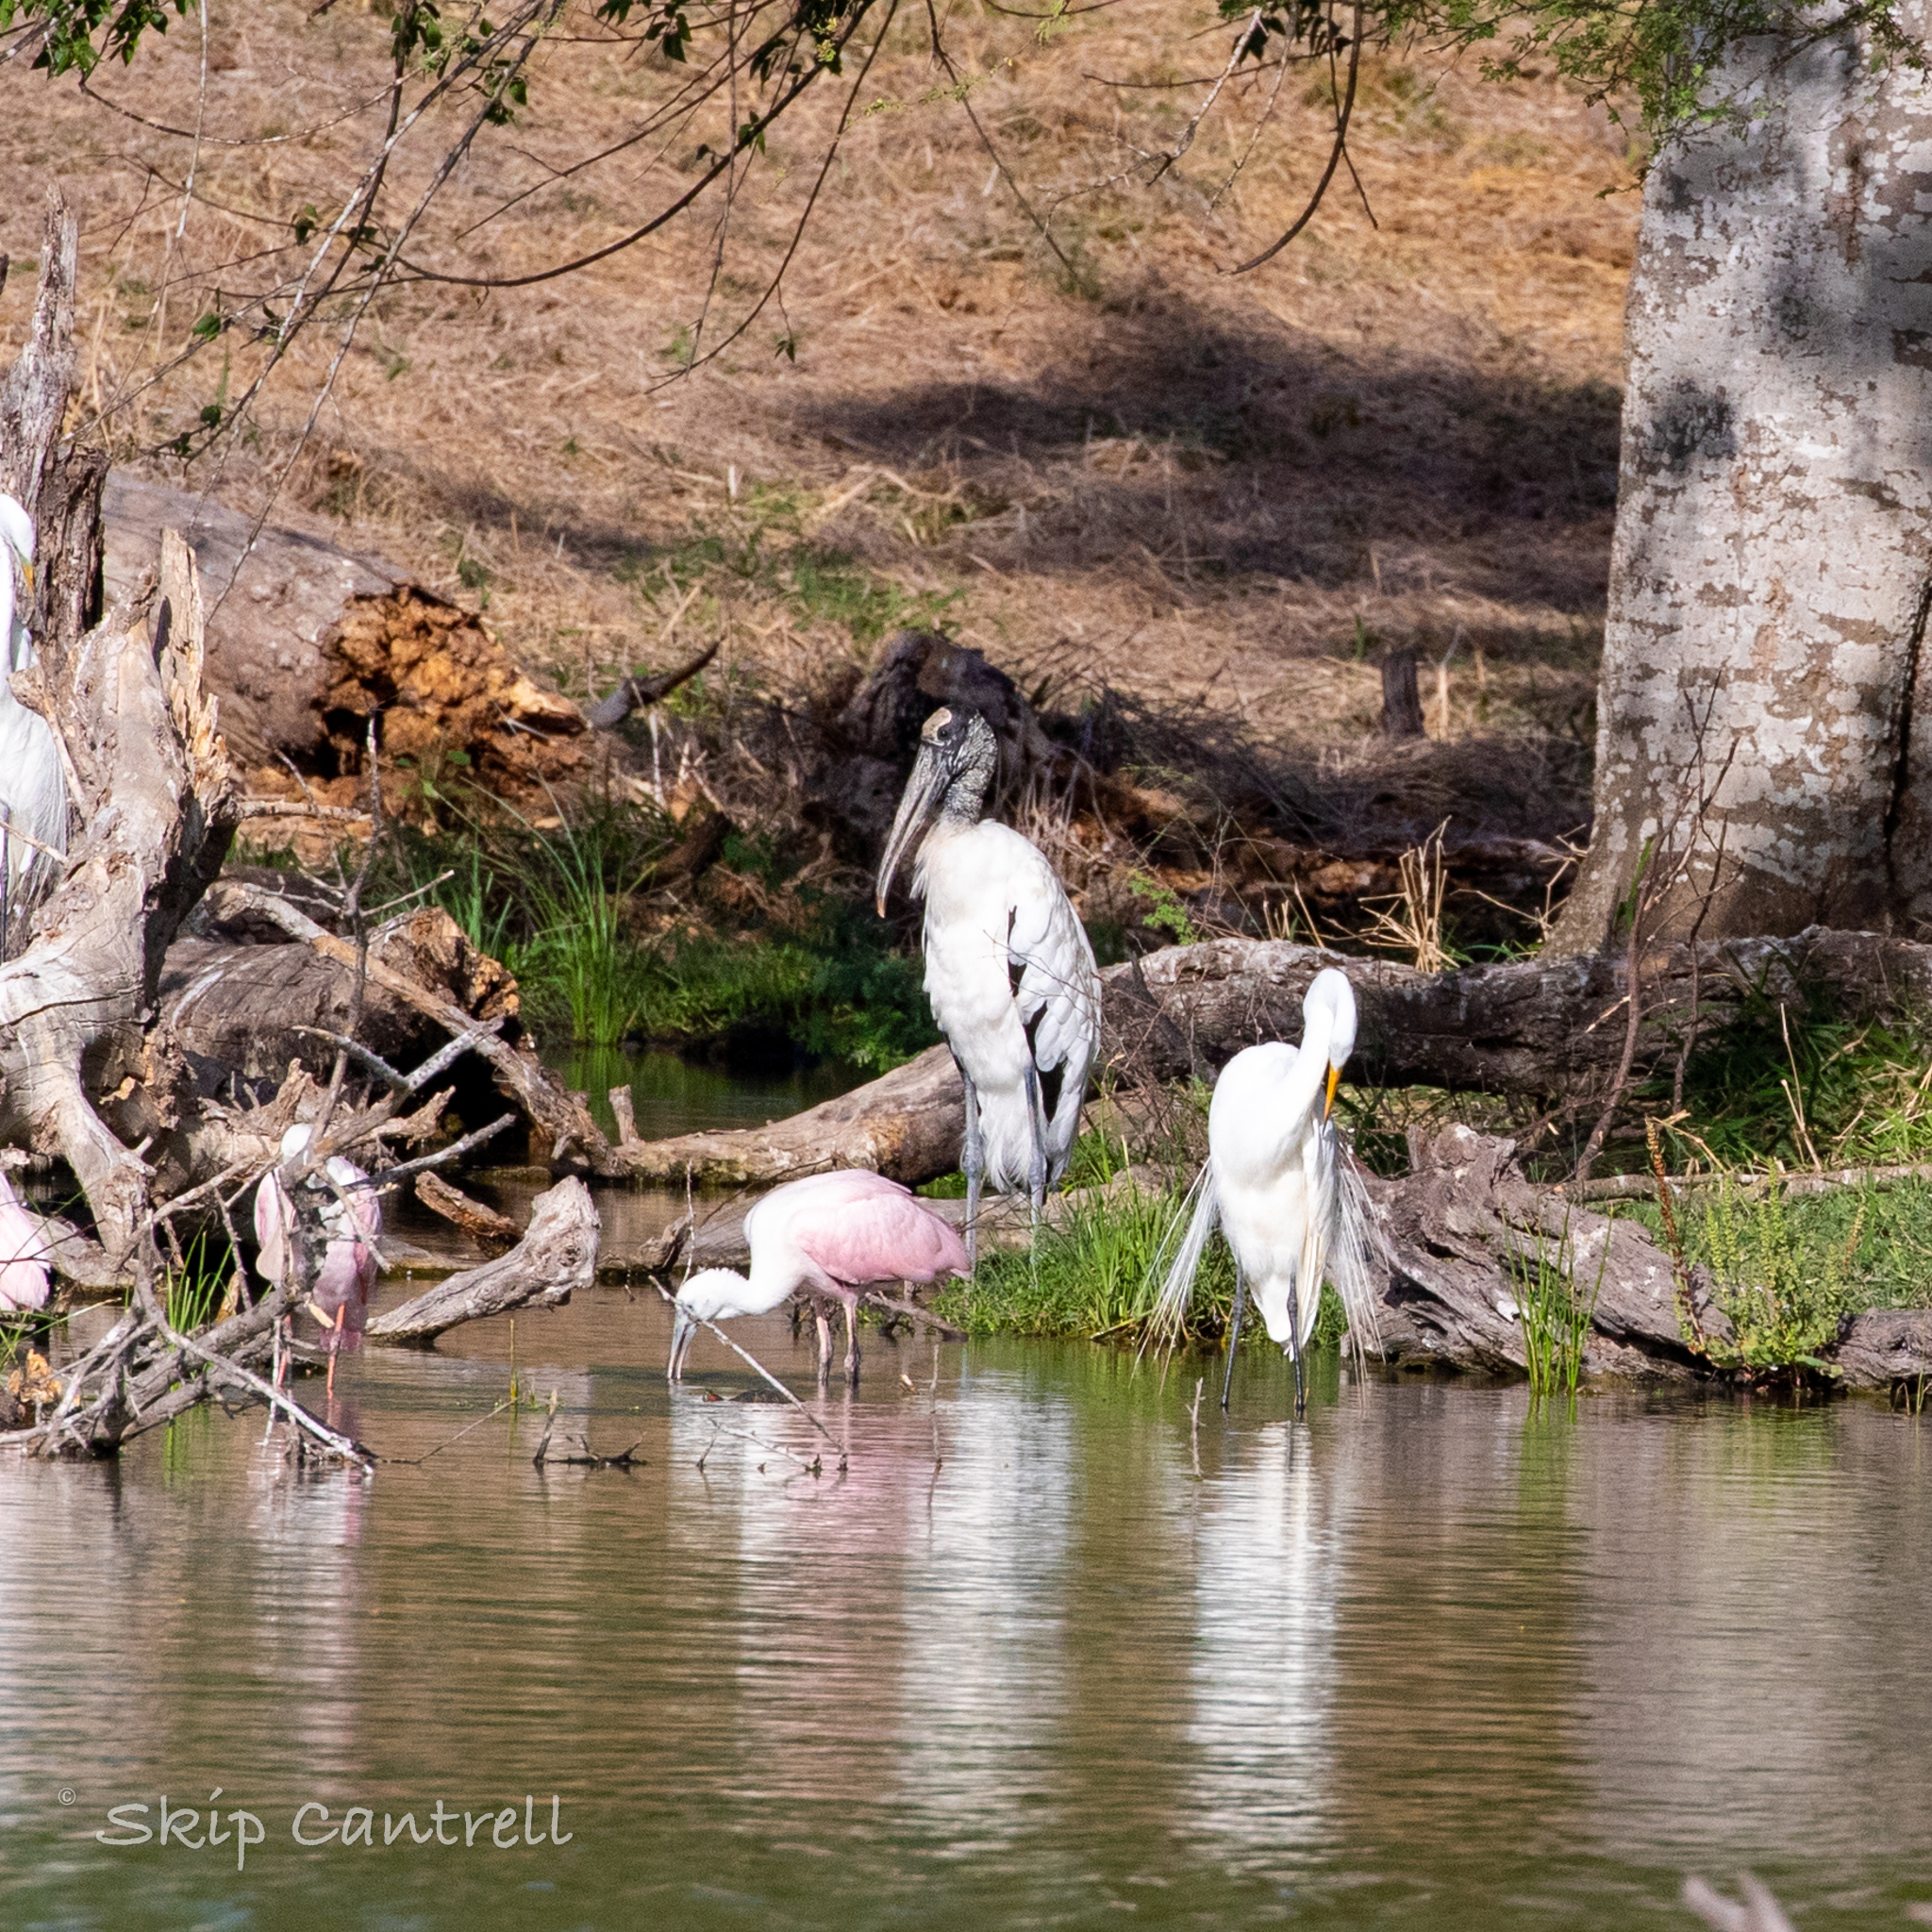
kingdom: Animalia
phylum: Chordata
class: Aves
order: Ciconiiformes
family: Ciconiidae
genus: Mycteria
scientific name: Mycteria americana
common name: Wood stork
